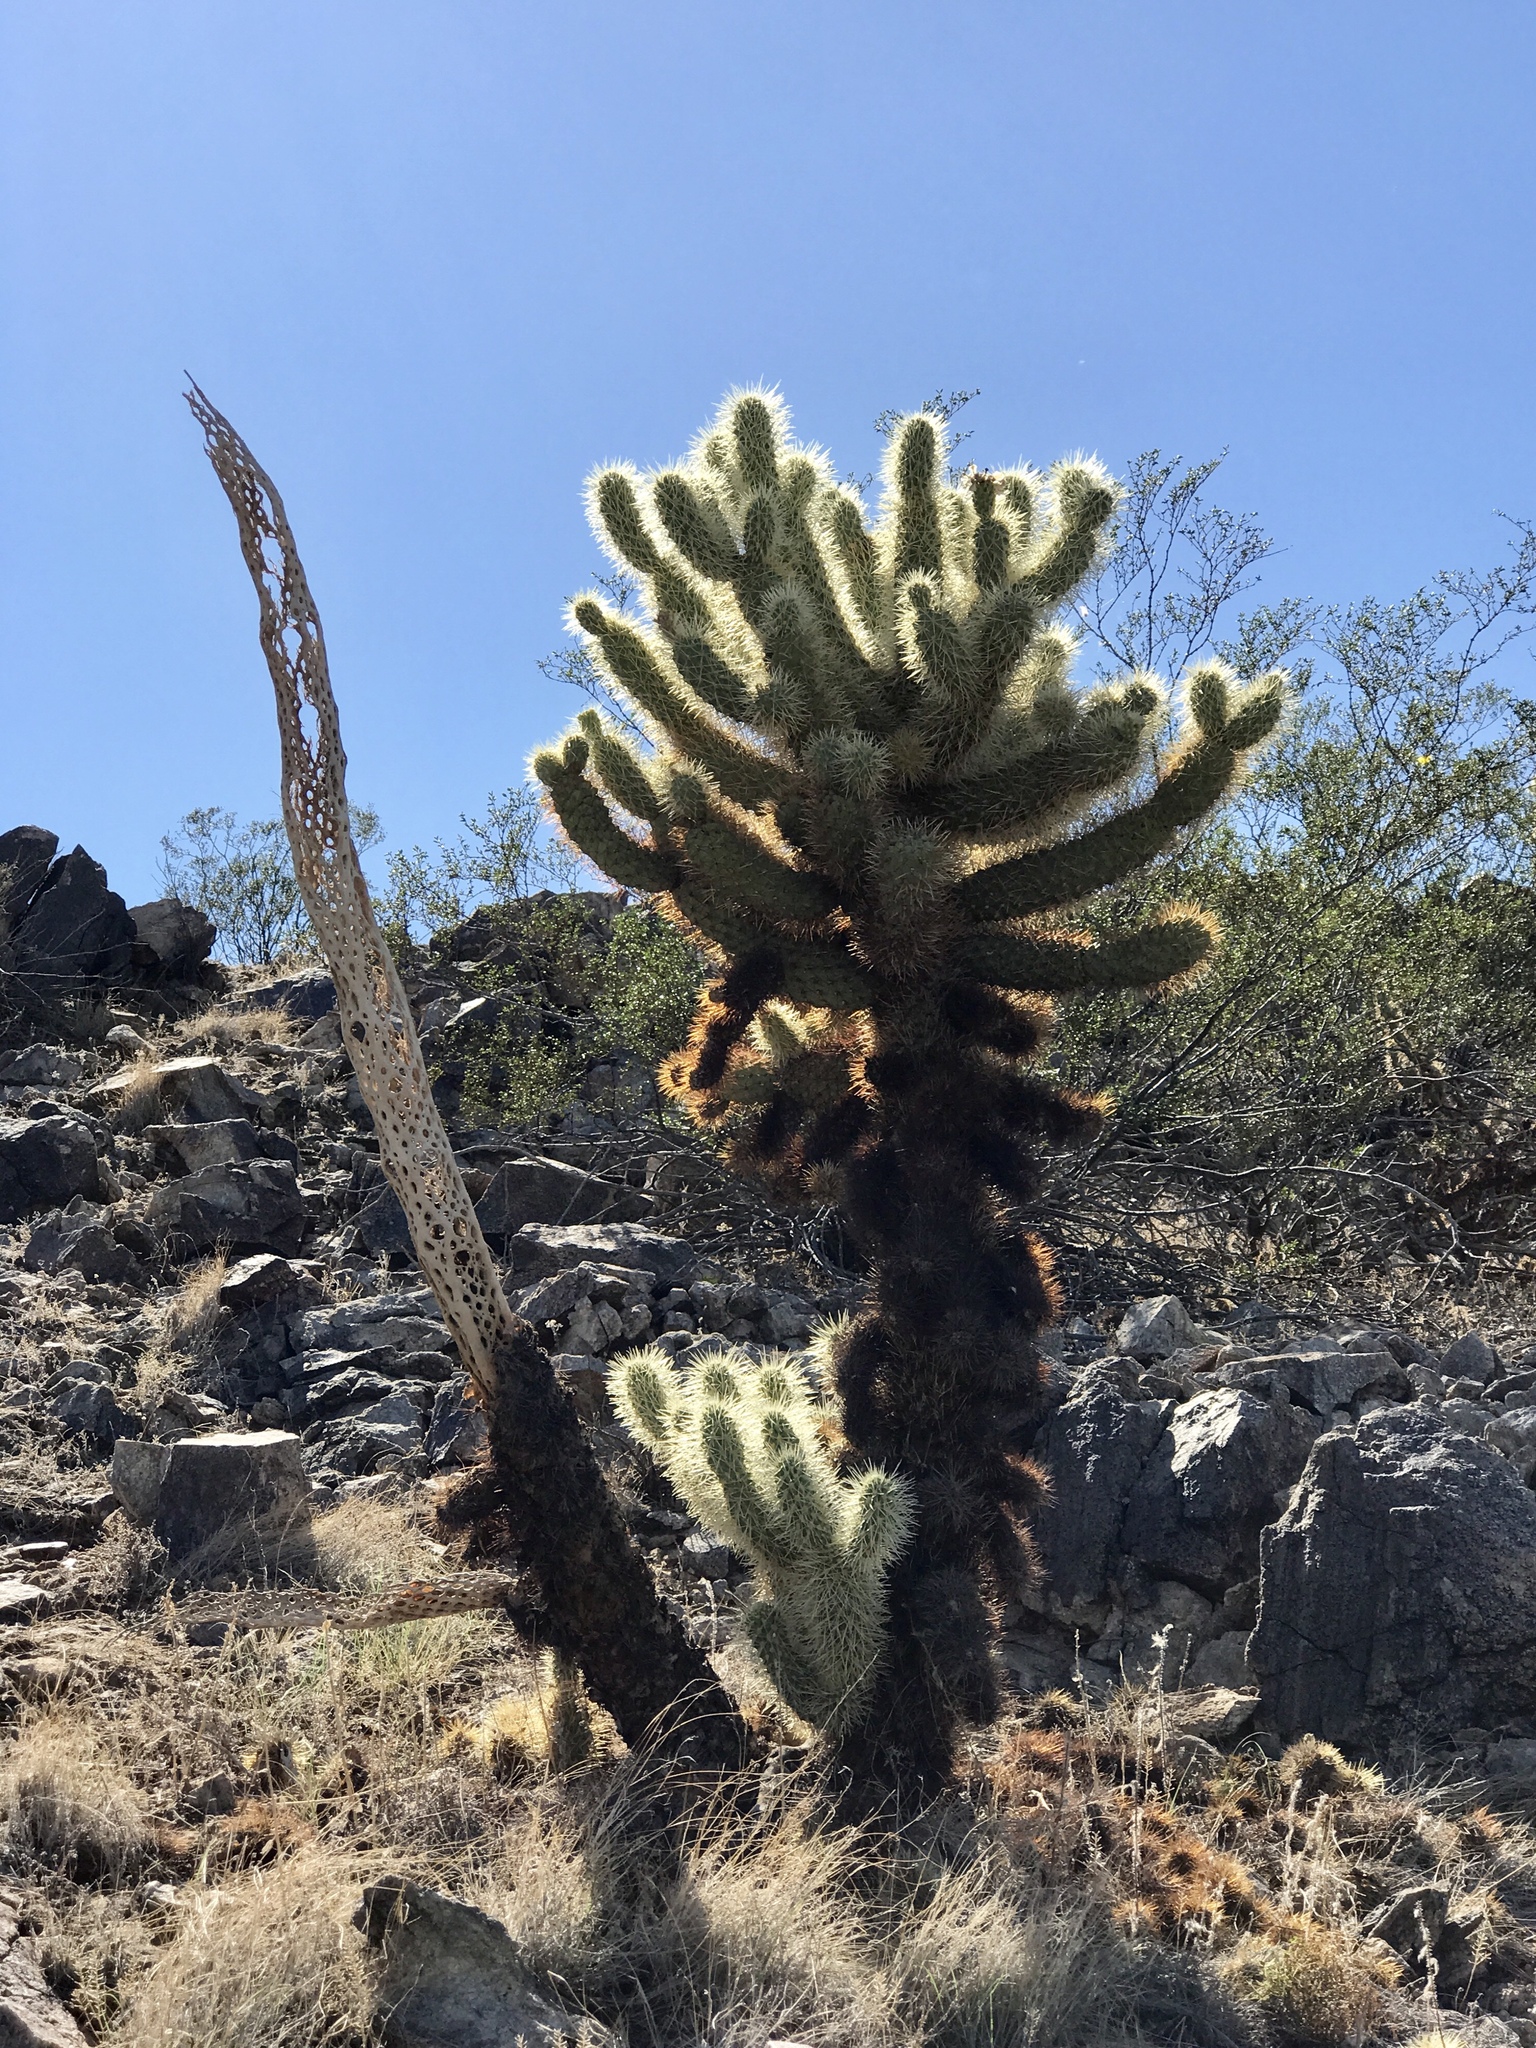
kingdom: Plantae
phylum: Tracheophyta
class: Magnoliopsida
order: Caryophyllales
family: Cactaceae
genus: Cylindropuntia
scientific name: Cylindropuntia fosbergii
